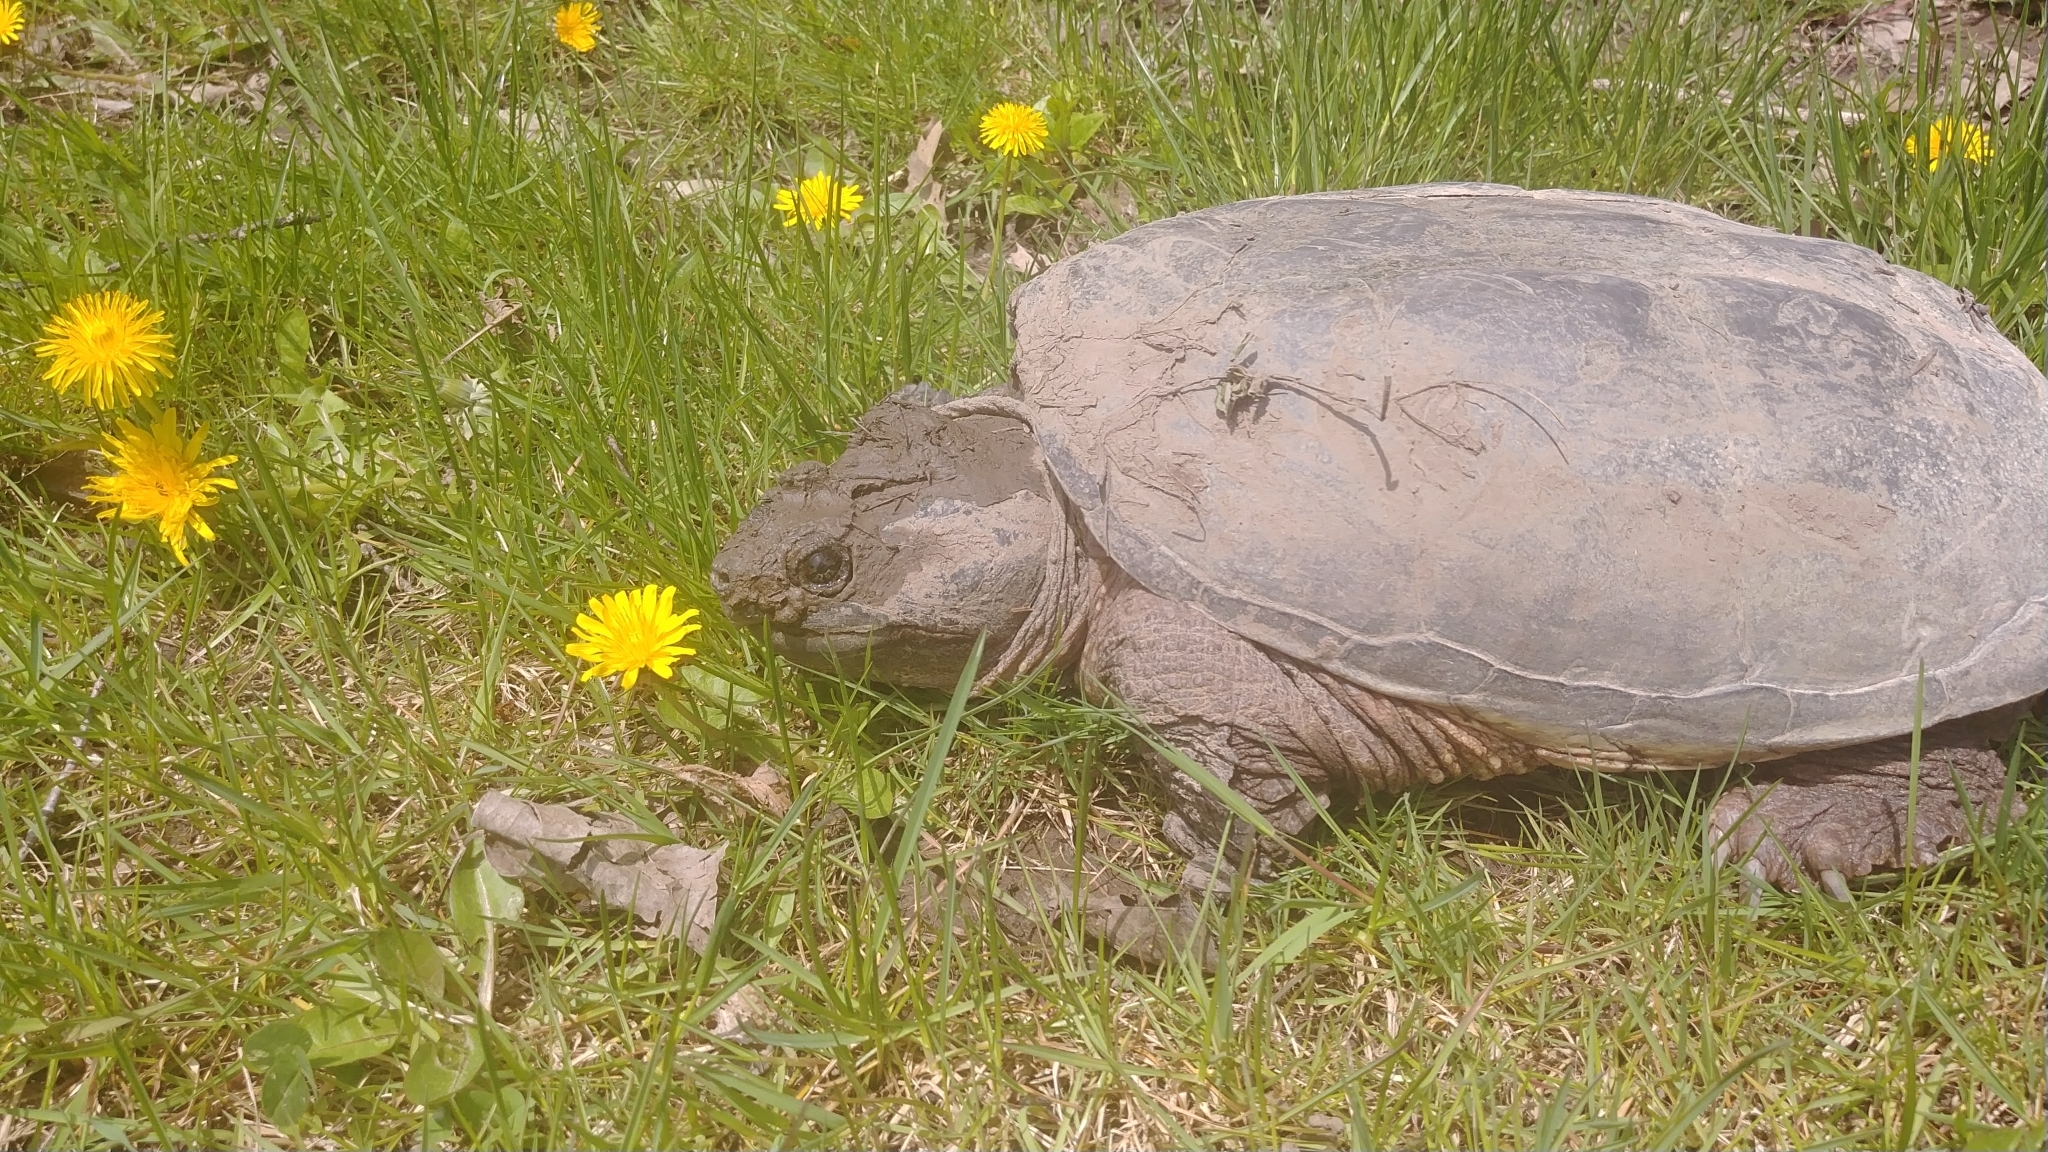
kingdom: Animalia
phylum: Chordata
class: Testudines
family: Chelydridae
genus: Chelydra
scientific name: Chelydra serpentina
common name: Common snapping turtle
